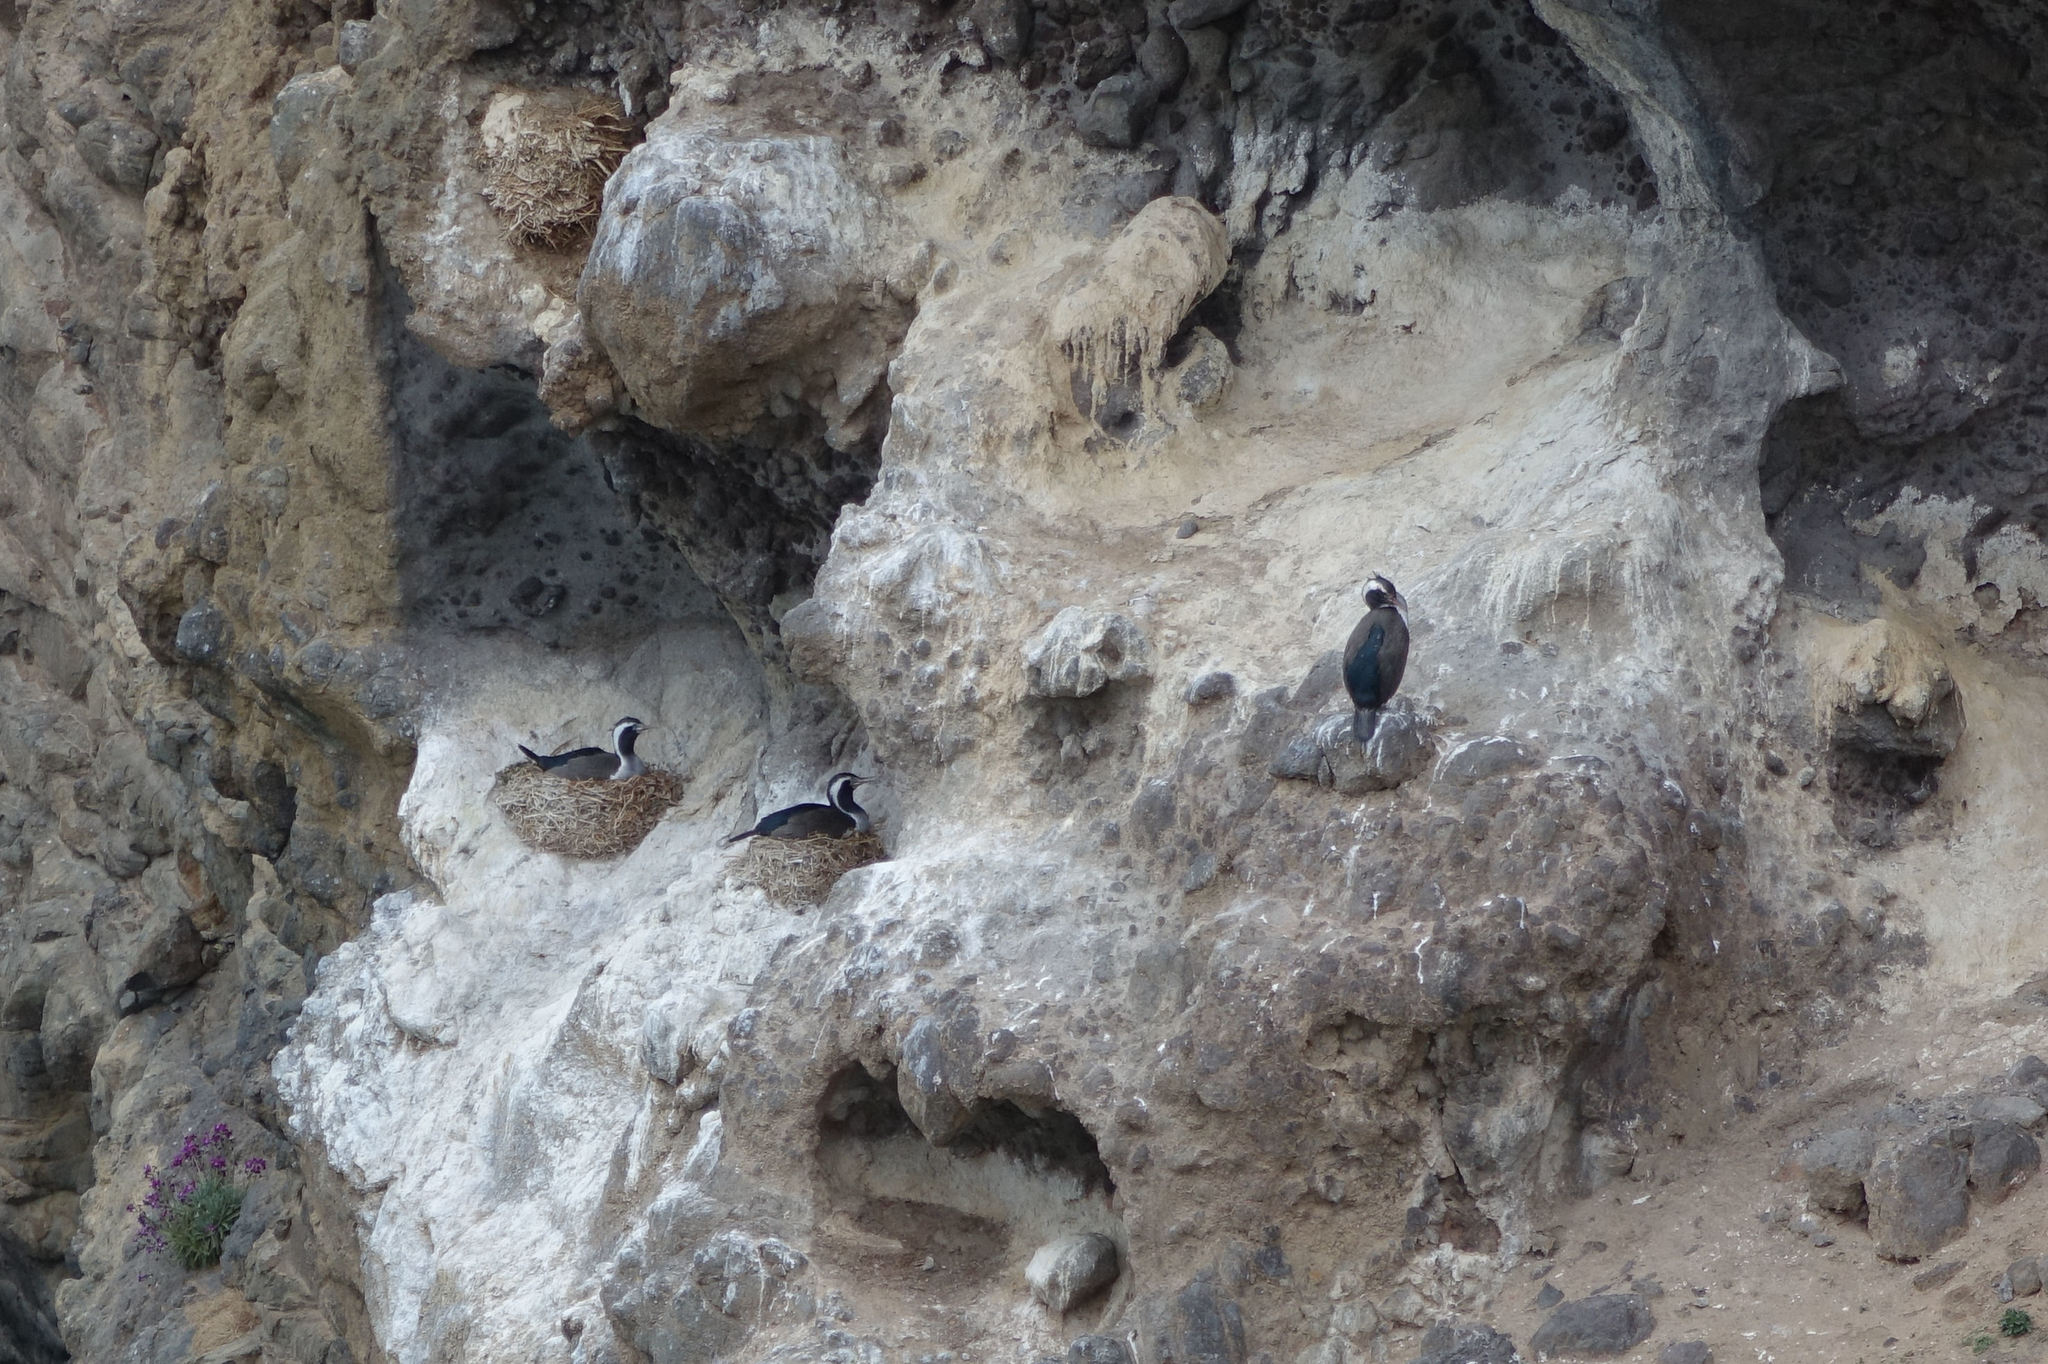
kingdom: Animalia
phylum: Chordata
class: Aves
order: Suliformes
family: Phalacrocoracidae
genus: Phalacrocorax
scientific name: Phalacrocorax punctatus
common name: Spotted shag
